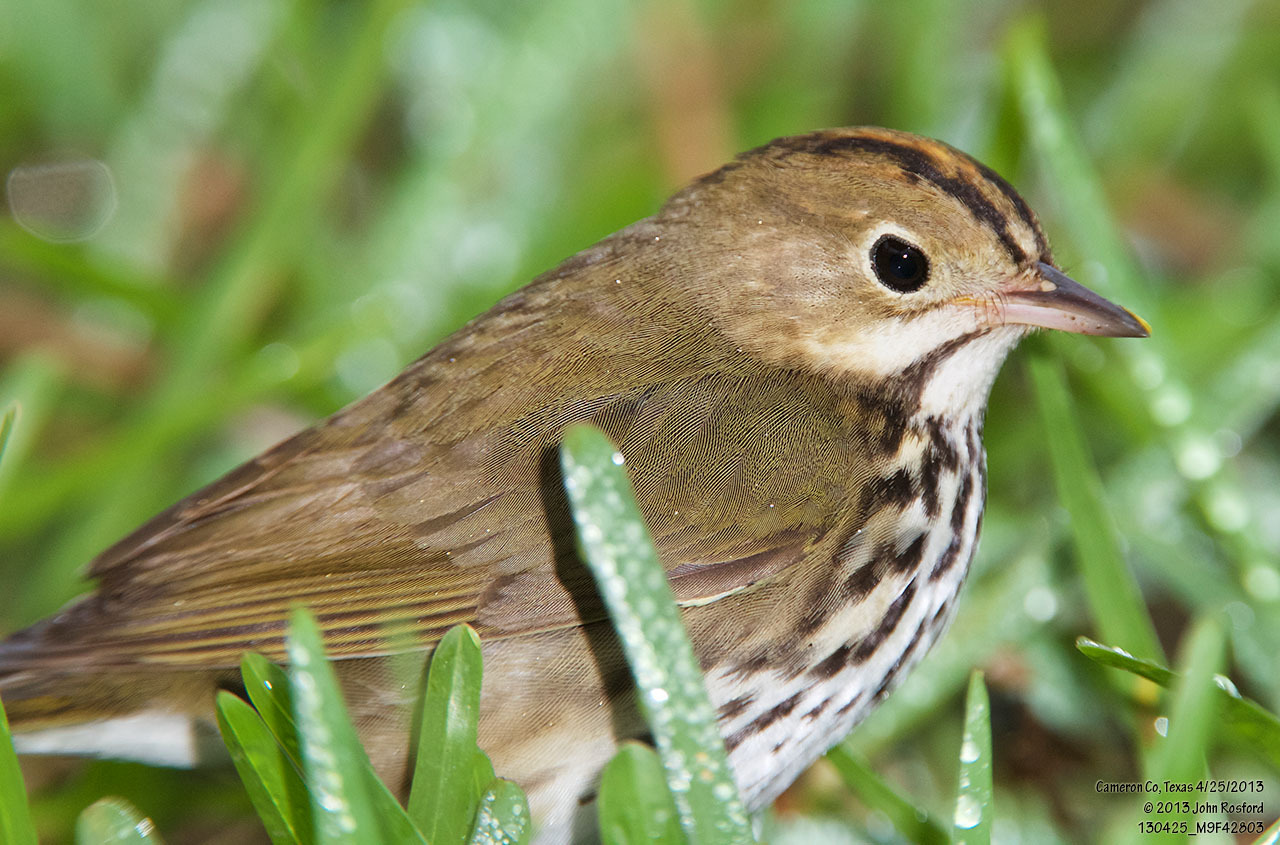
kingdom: Animalia
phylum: Chordata
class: Aves
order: Passeriformes
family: Parulidae
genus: Seiurus
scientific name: Seiurus aurocapilla
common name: Ovenbird
